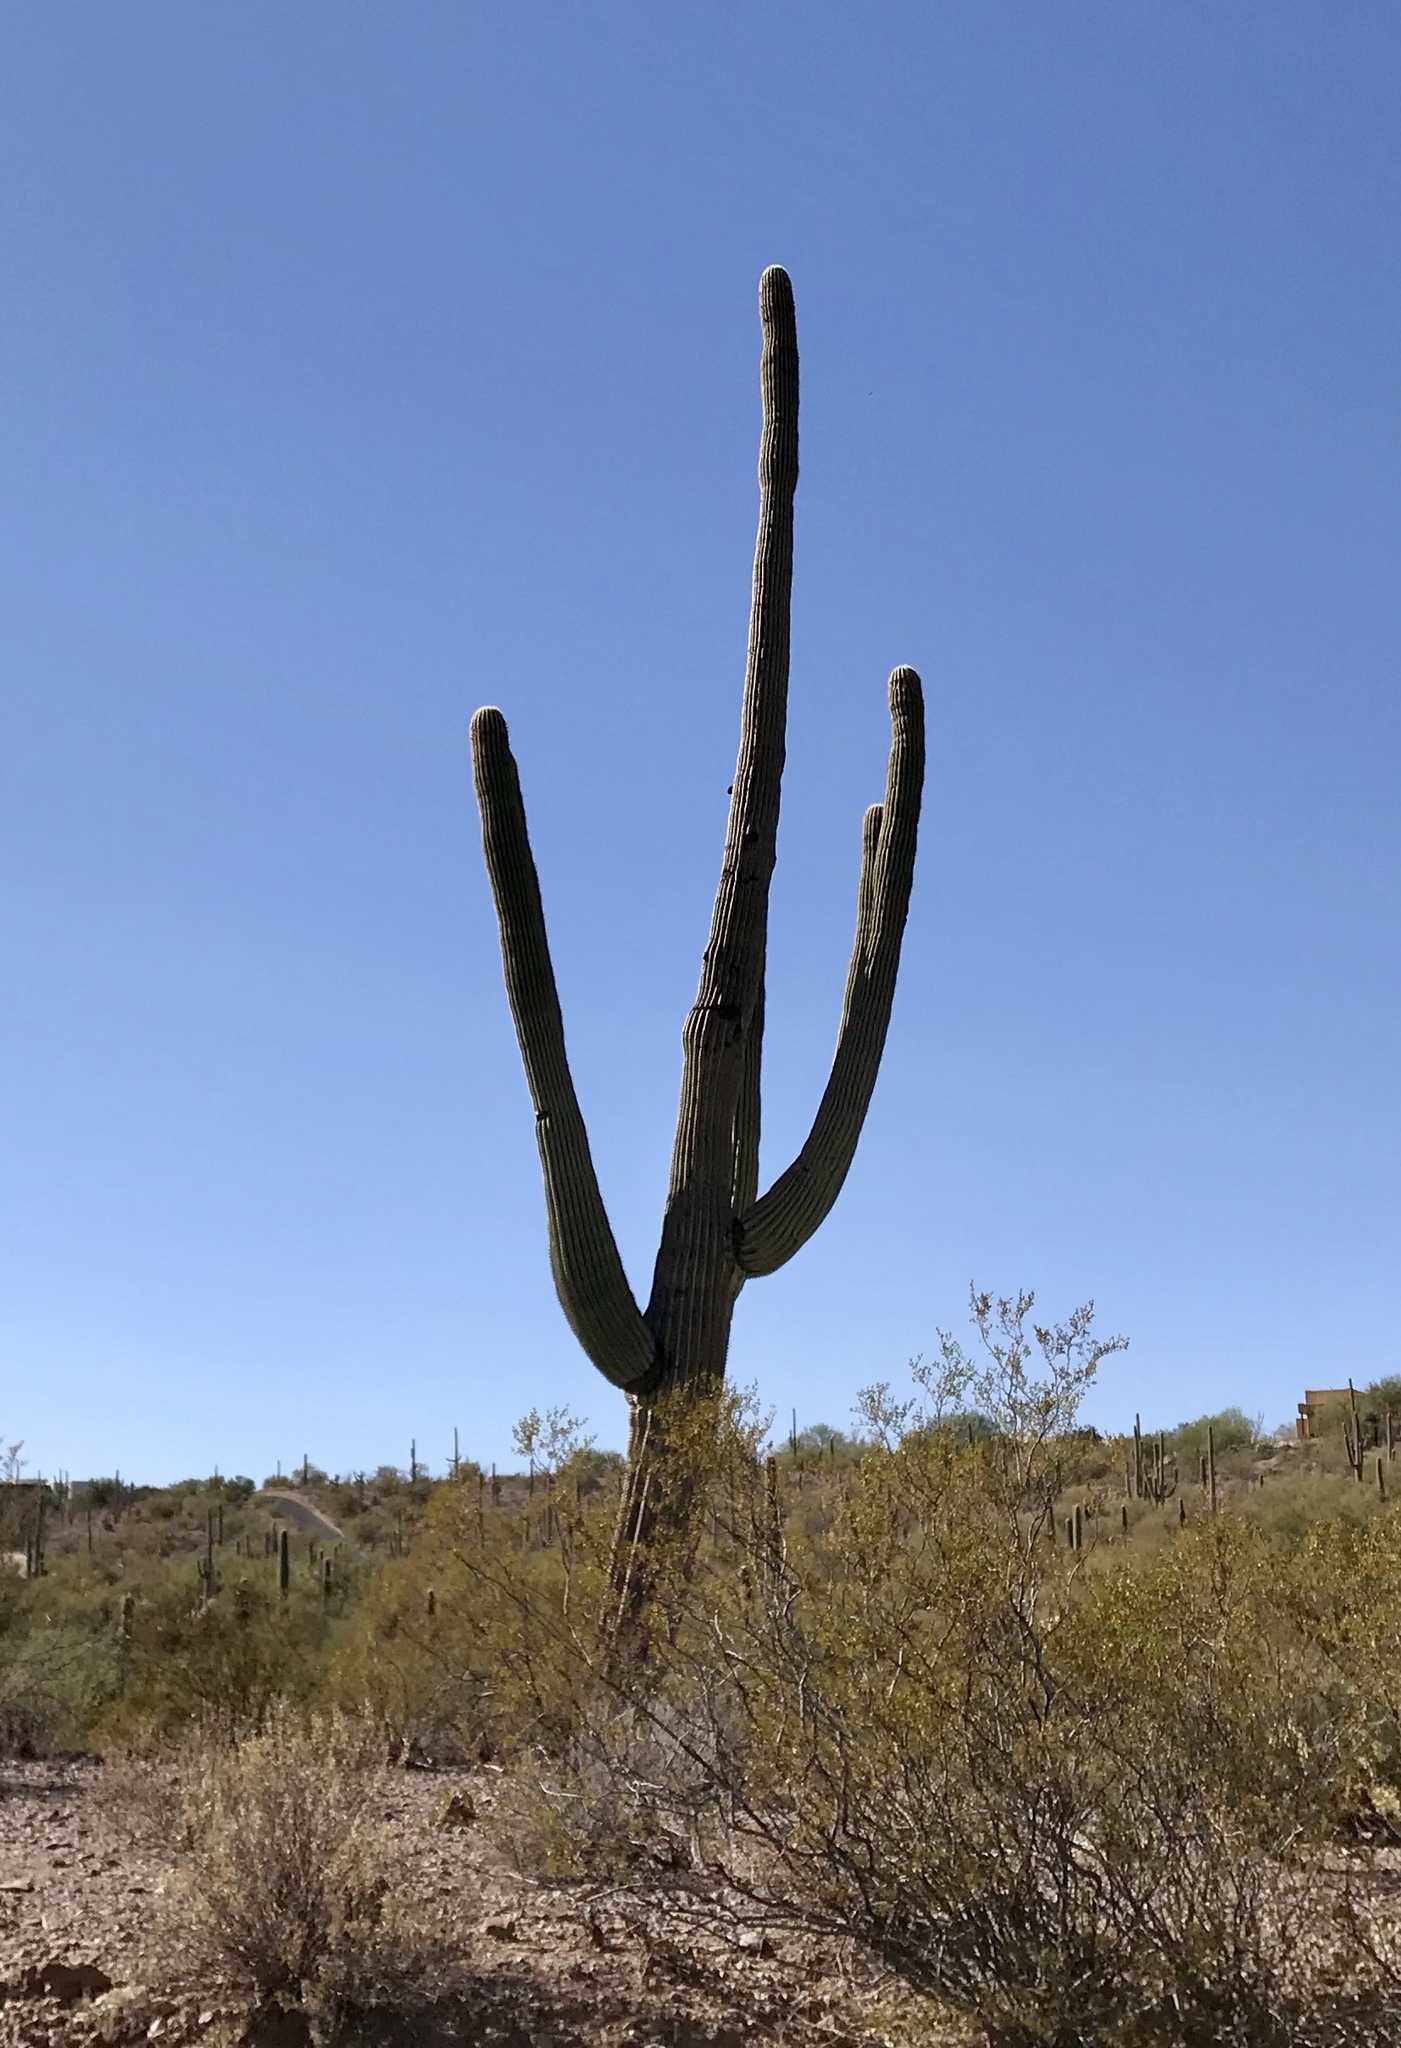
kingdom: Plantae
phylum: Tracheophyta
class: Magnoliopsida
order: Caryophyllales
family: Cactaceae
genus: Carnegiea
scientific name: Carnegiea gigantea
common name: Saguaro
